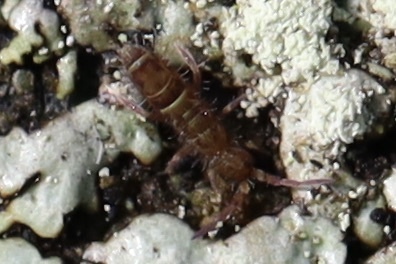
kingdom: Animalia
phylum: Arthropoda
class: Collembola
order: Entomobryomorpha
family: Orchesellidae
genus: Orchesella
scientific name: Orchesella cincta
